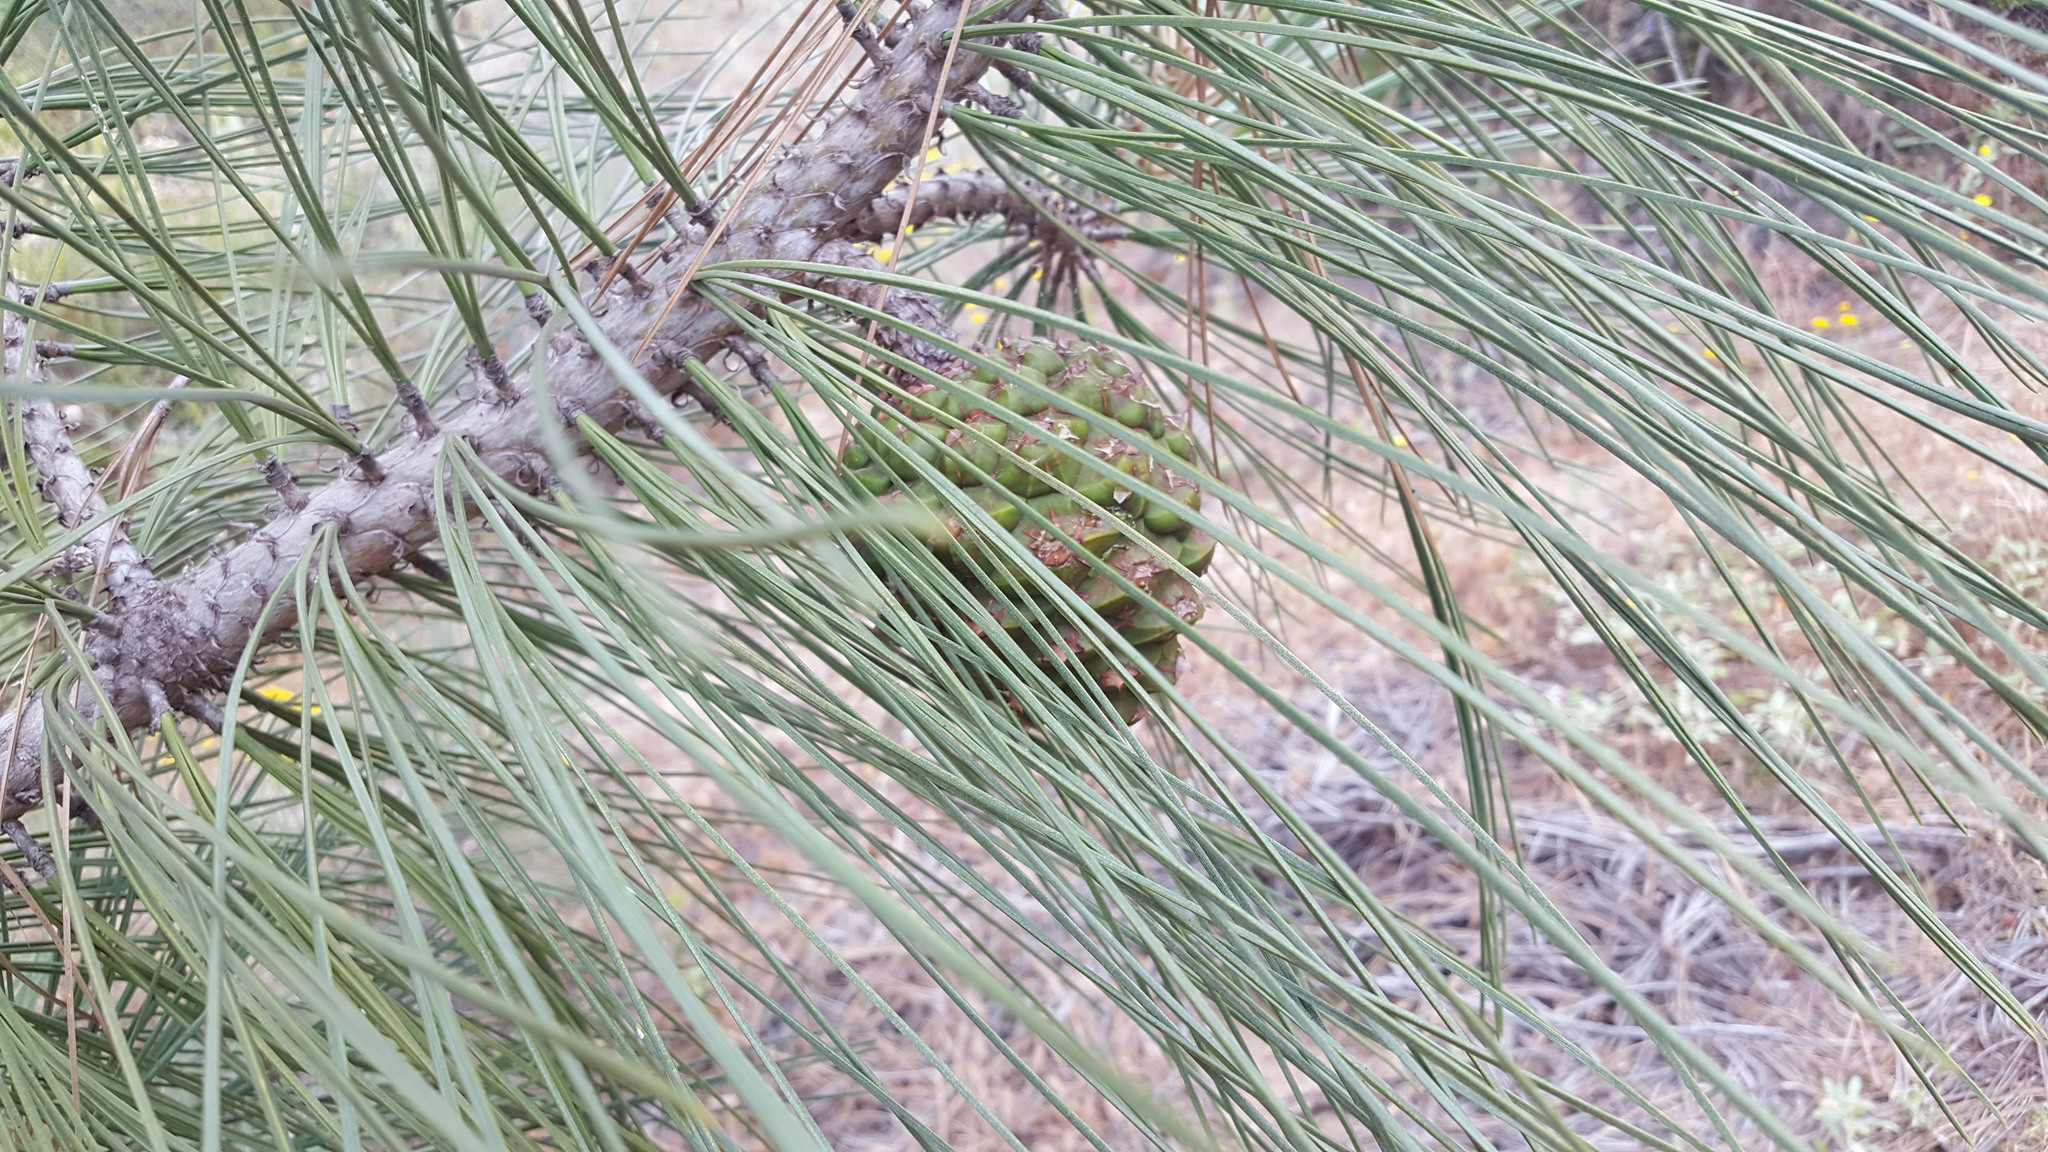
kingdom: Plantae
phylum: Tracheophyta
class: Pinopsida
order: Pinales
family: Pinaceae
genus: Pinus
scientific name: Pinus torreyana
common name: Torrey pine
